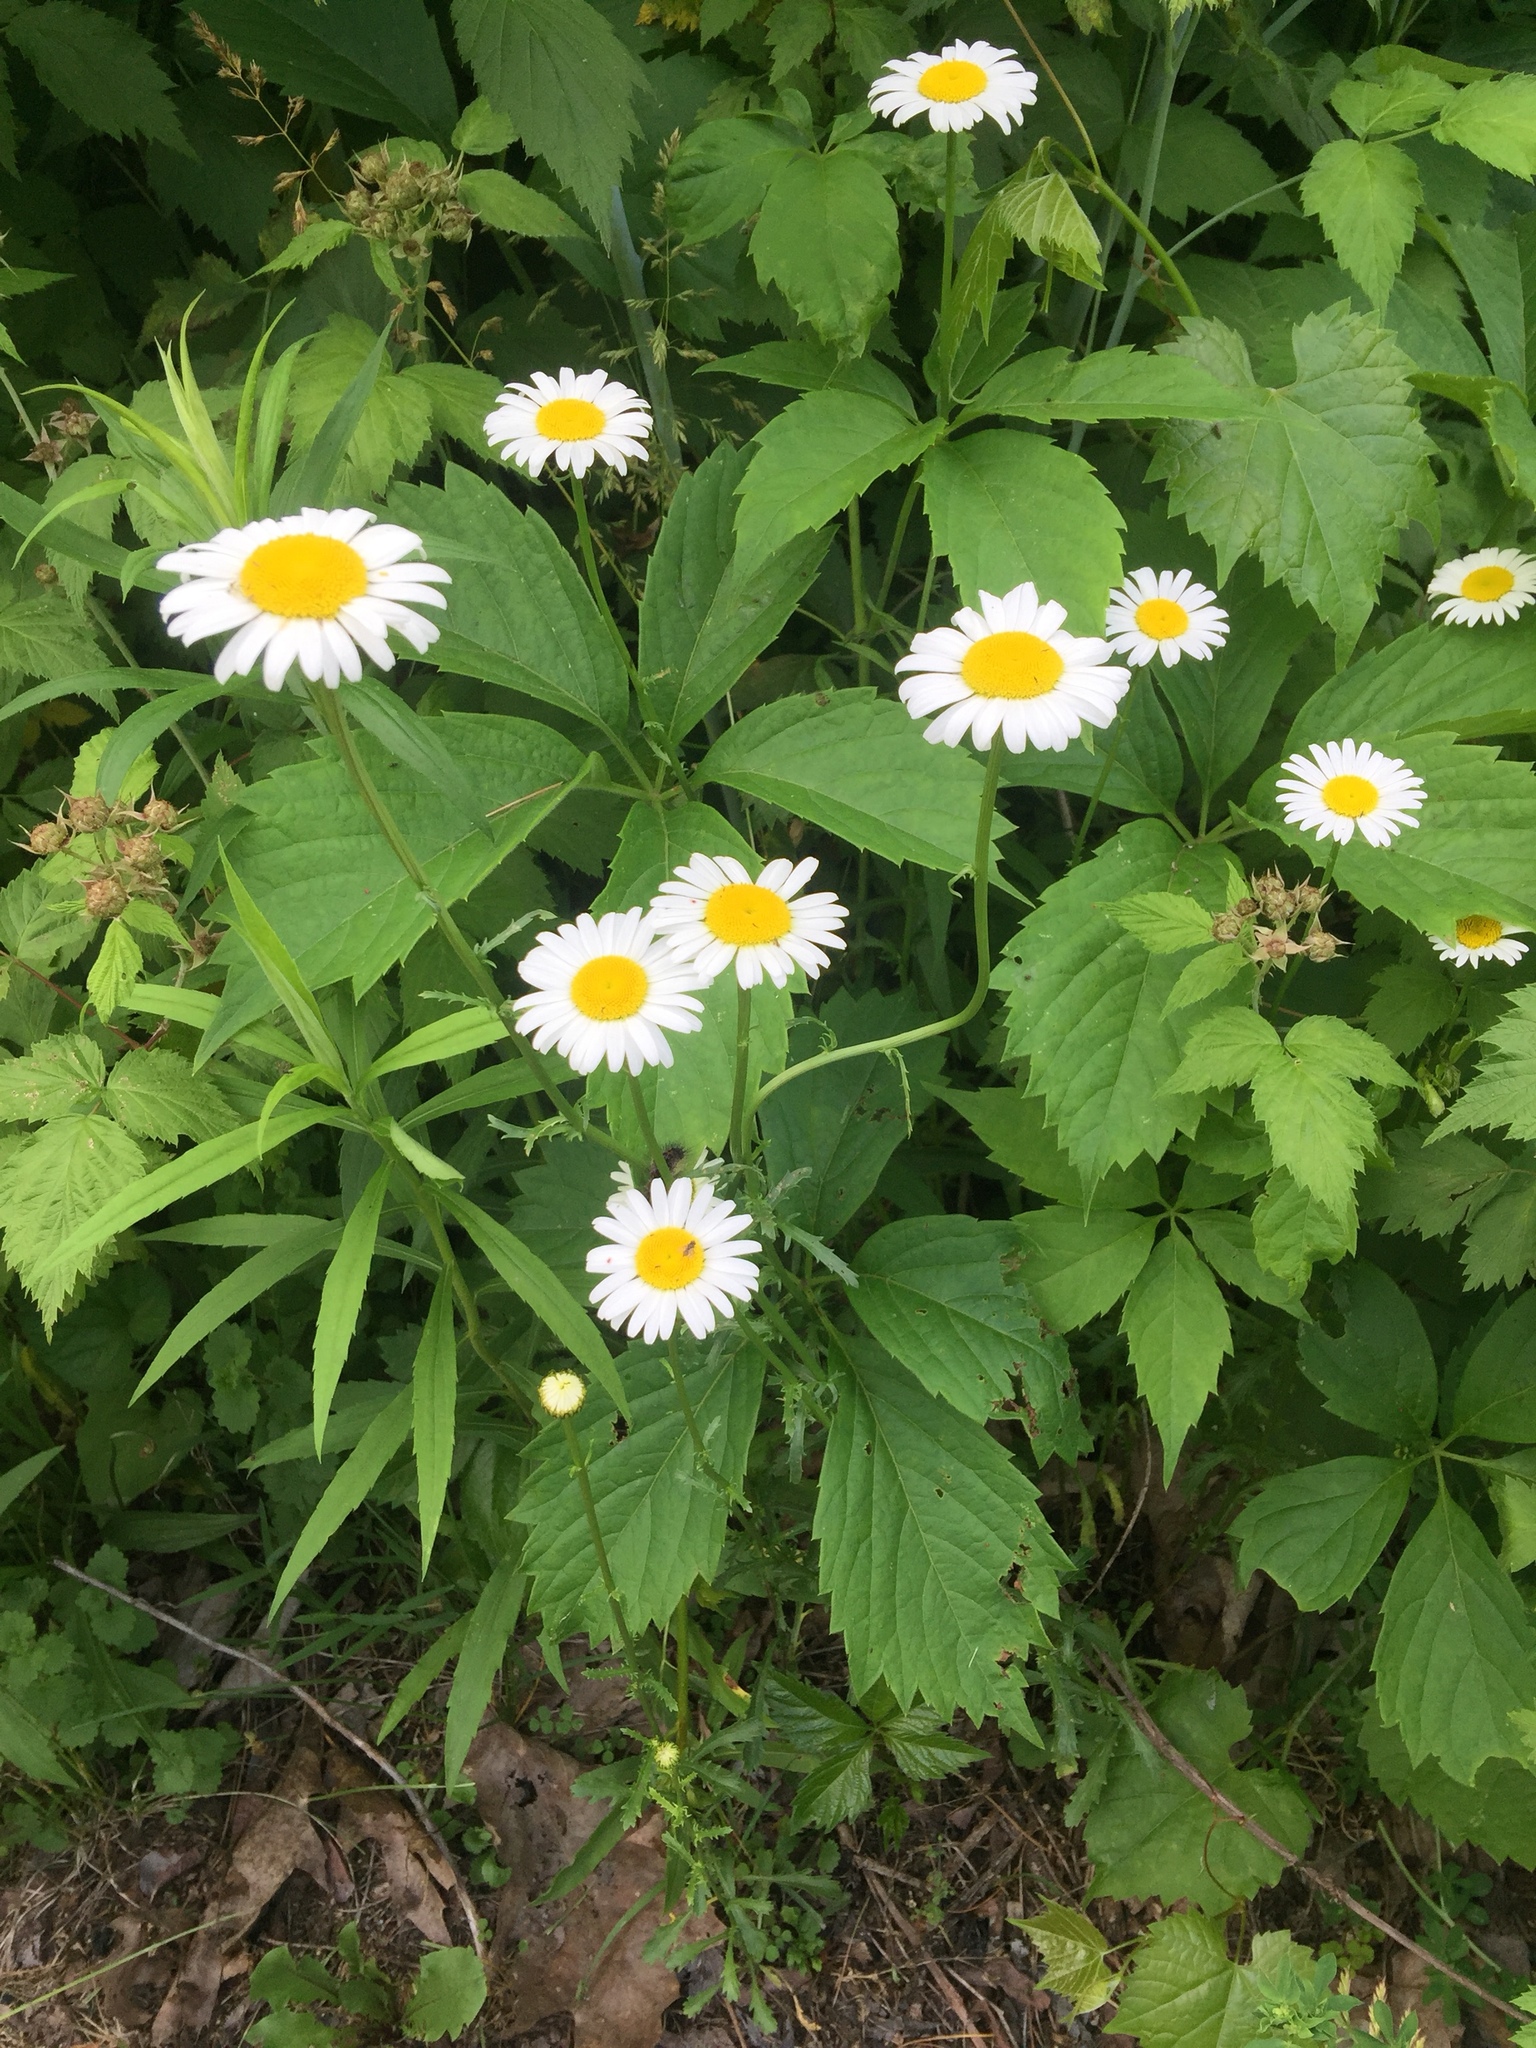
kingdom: Plantae
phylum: Tracheophyta
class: Magnoliopsida
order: Asterales
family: Asteraceae
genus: Leucanthemum
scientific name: Leucanthemum vulgare
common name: Oxeye daisy
